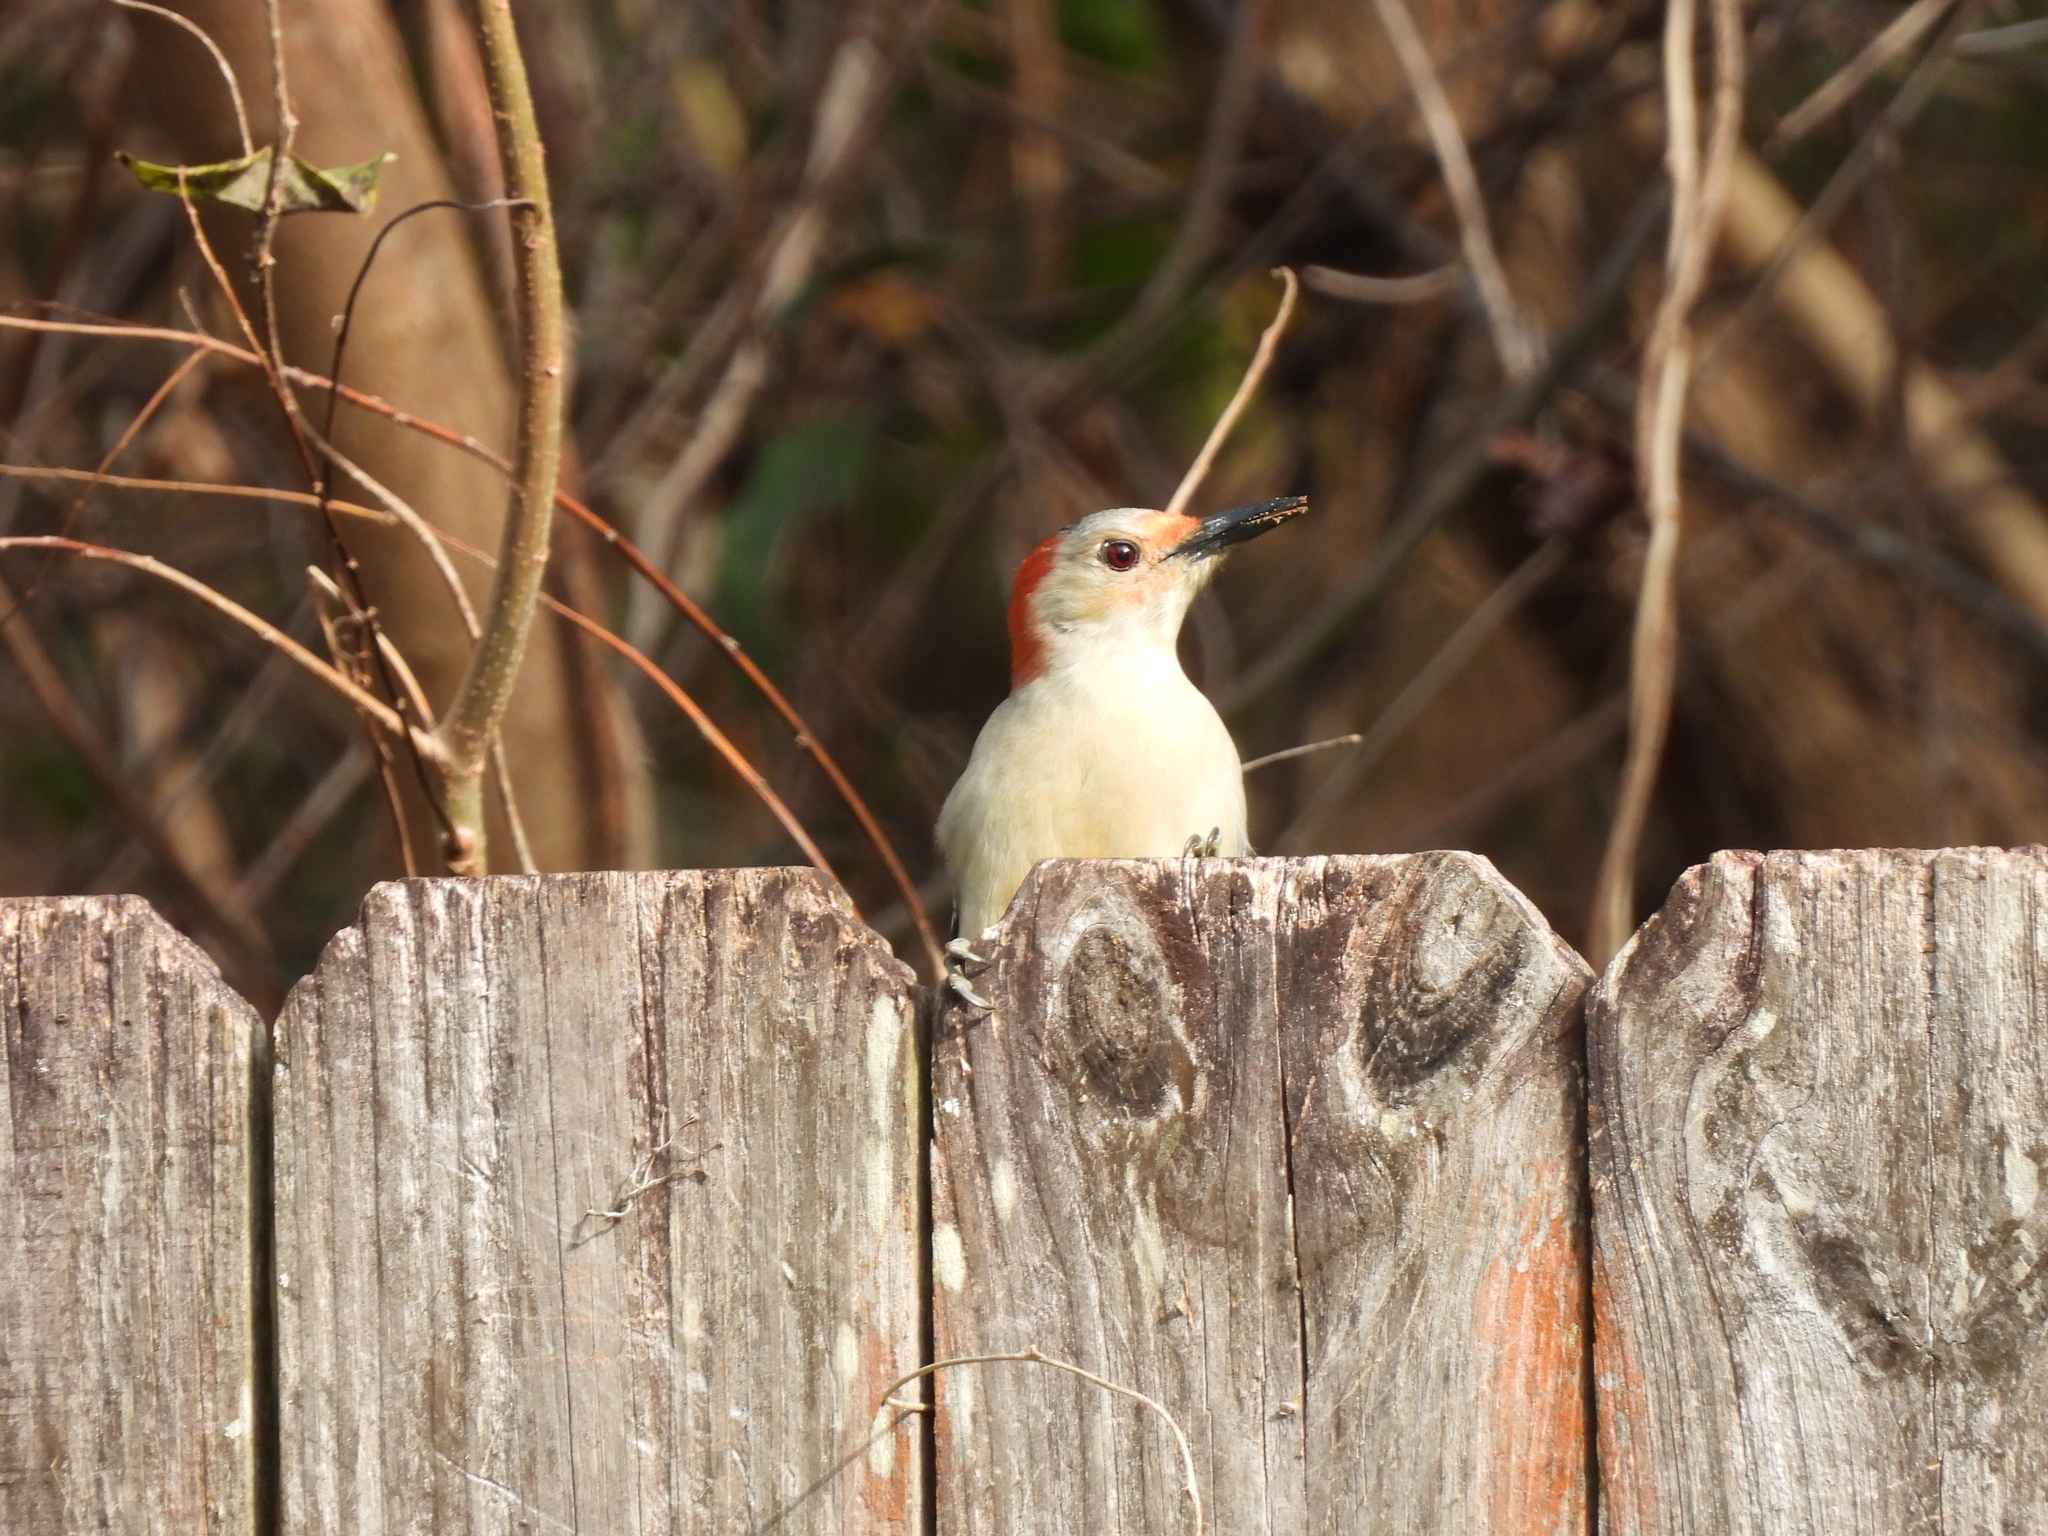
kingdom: Animalia
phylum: Chordata
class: Aves
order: Piciformes
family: Picidae
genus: Melanerpes
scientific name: Melanerpes carolinus
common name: Red-bellied woodpecker
